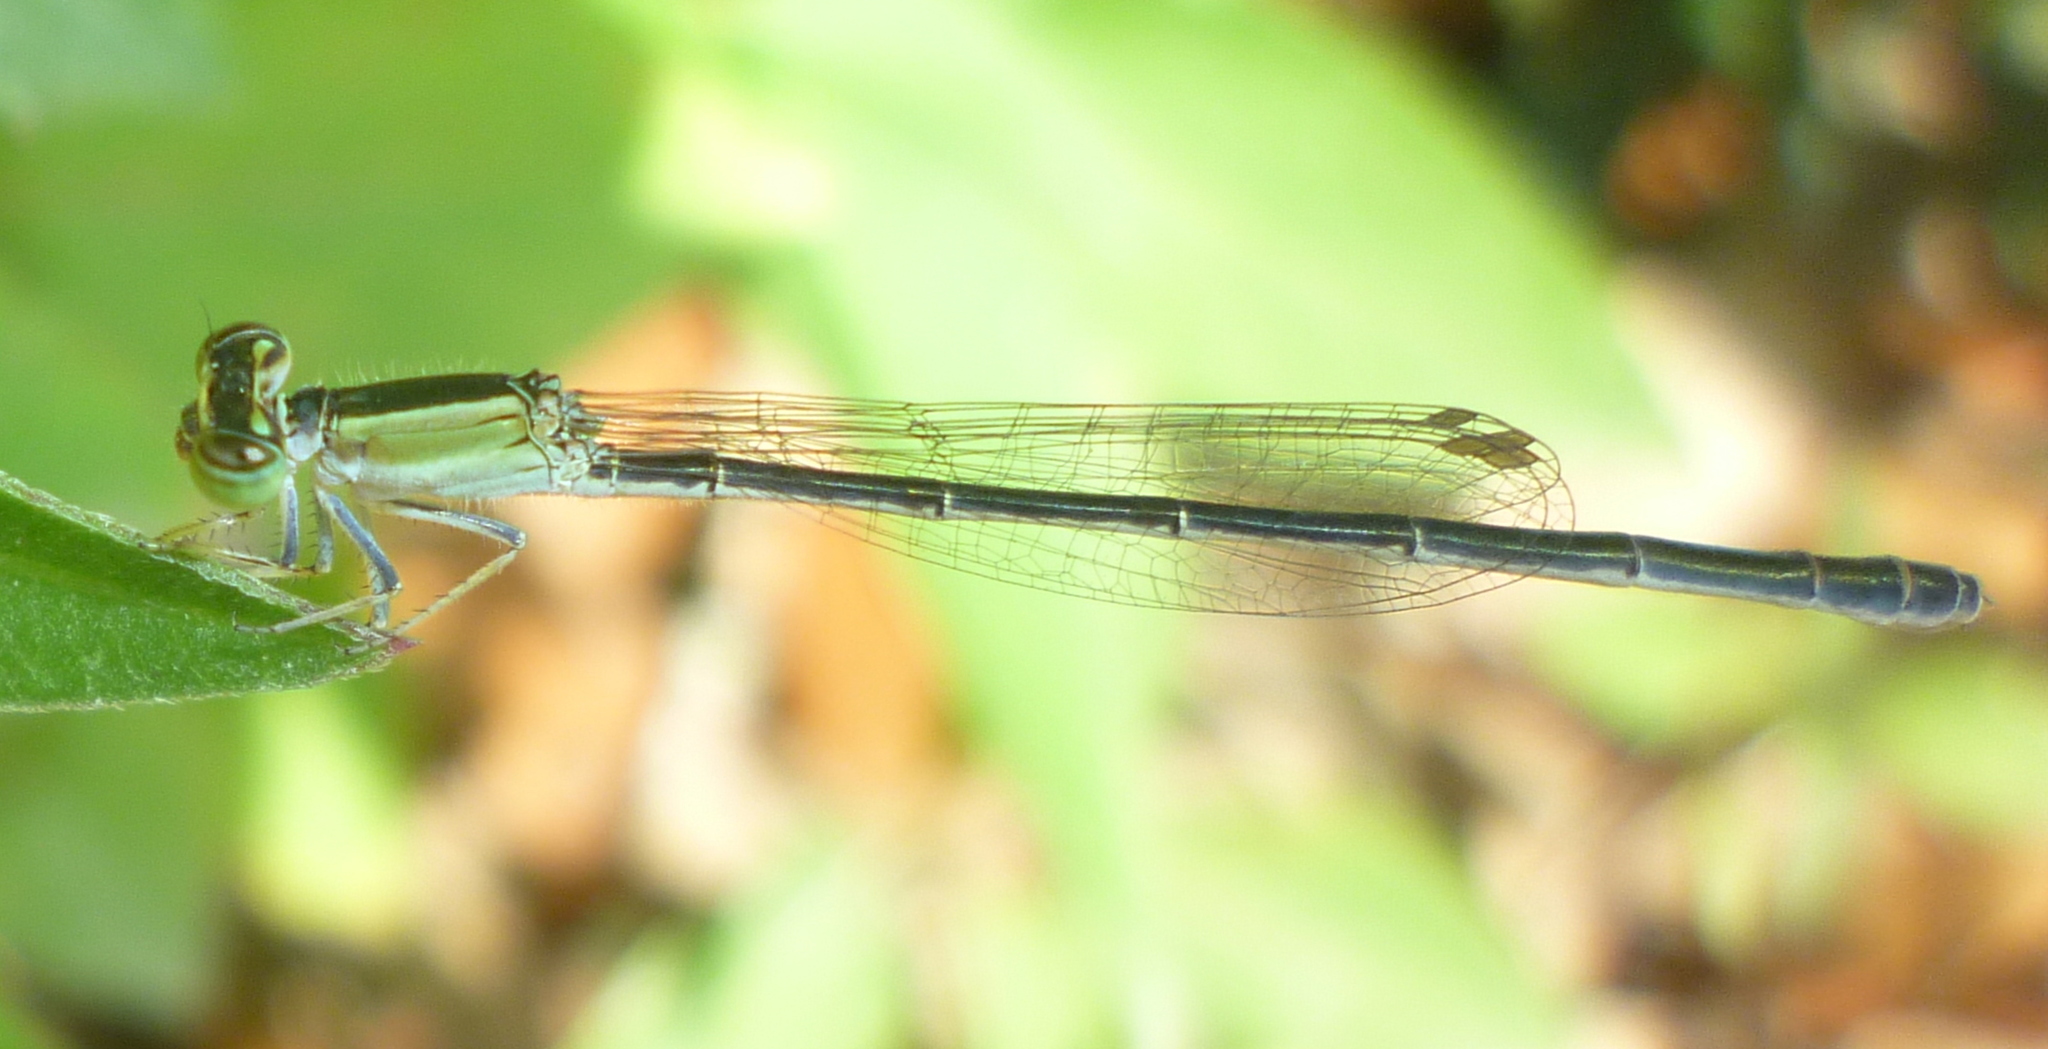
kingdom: Animalia
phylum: Arthropoda
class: Insecta
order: Odonata
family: Coenagrionidae
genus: Ischnura
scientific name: Ischnura ramburii
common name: Rambur's forktail
